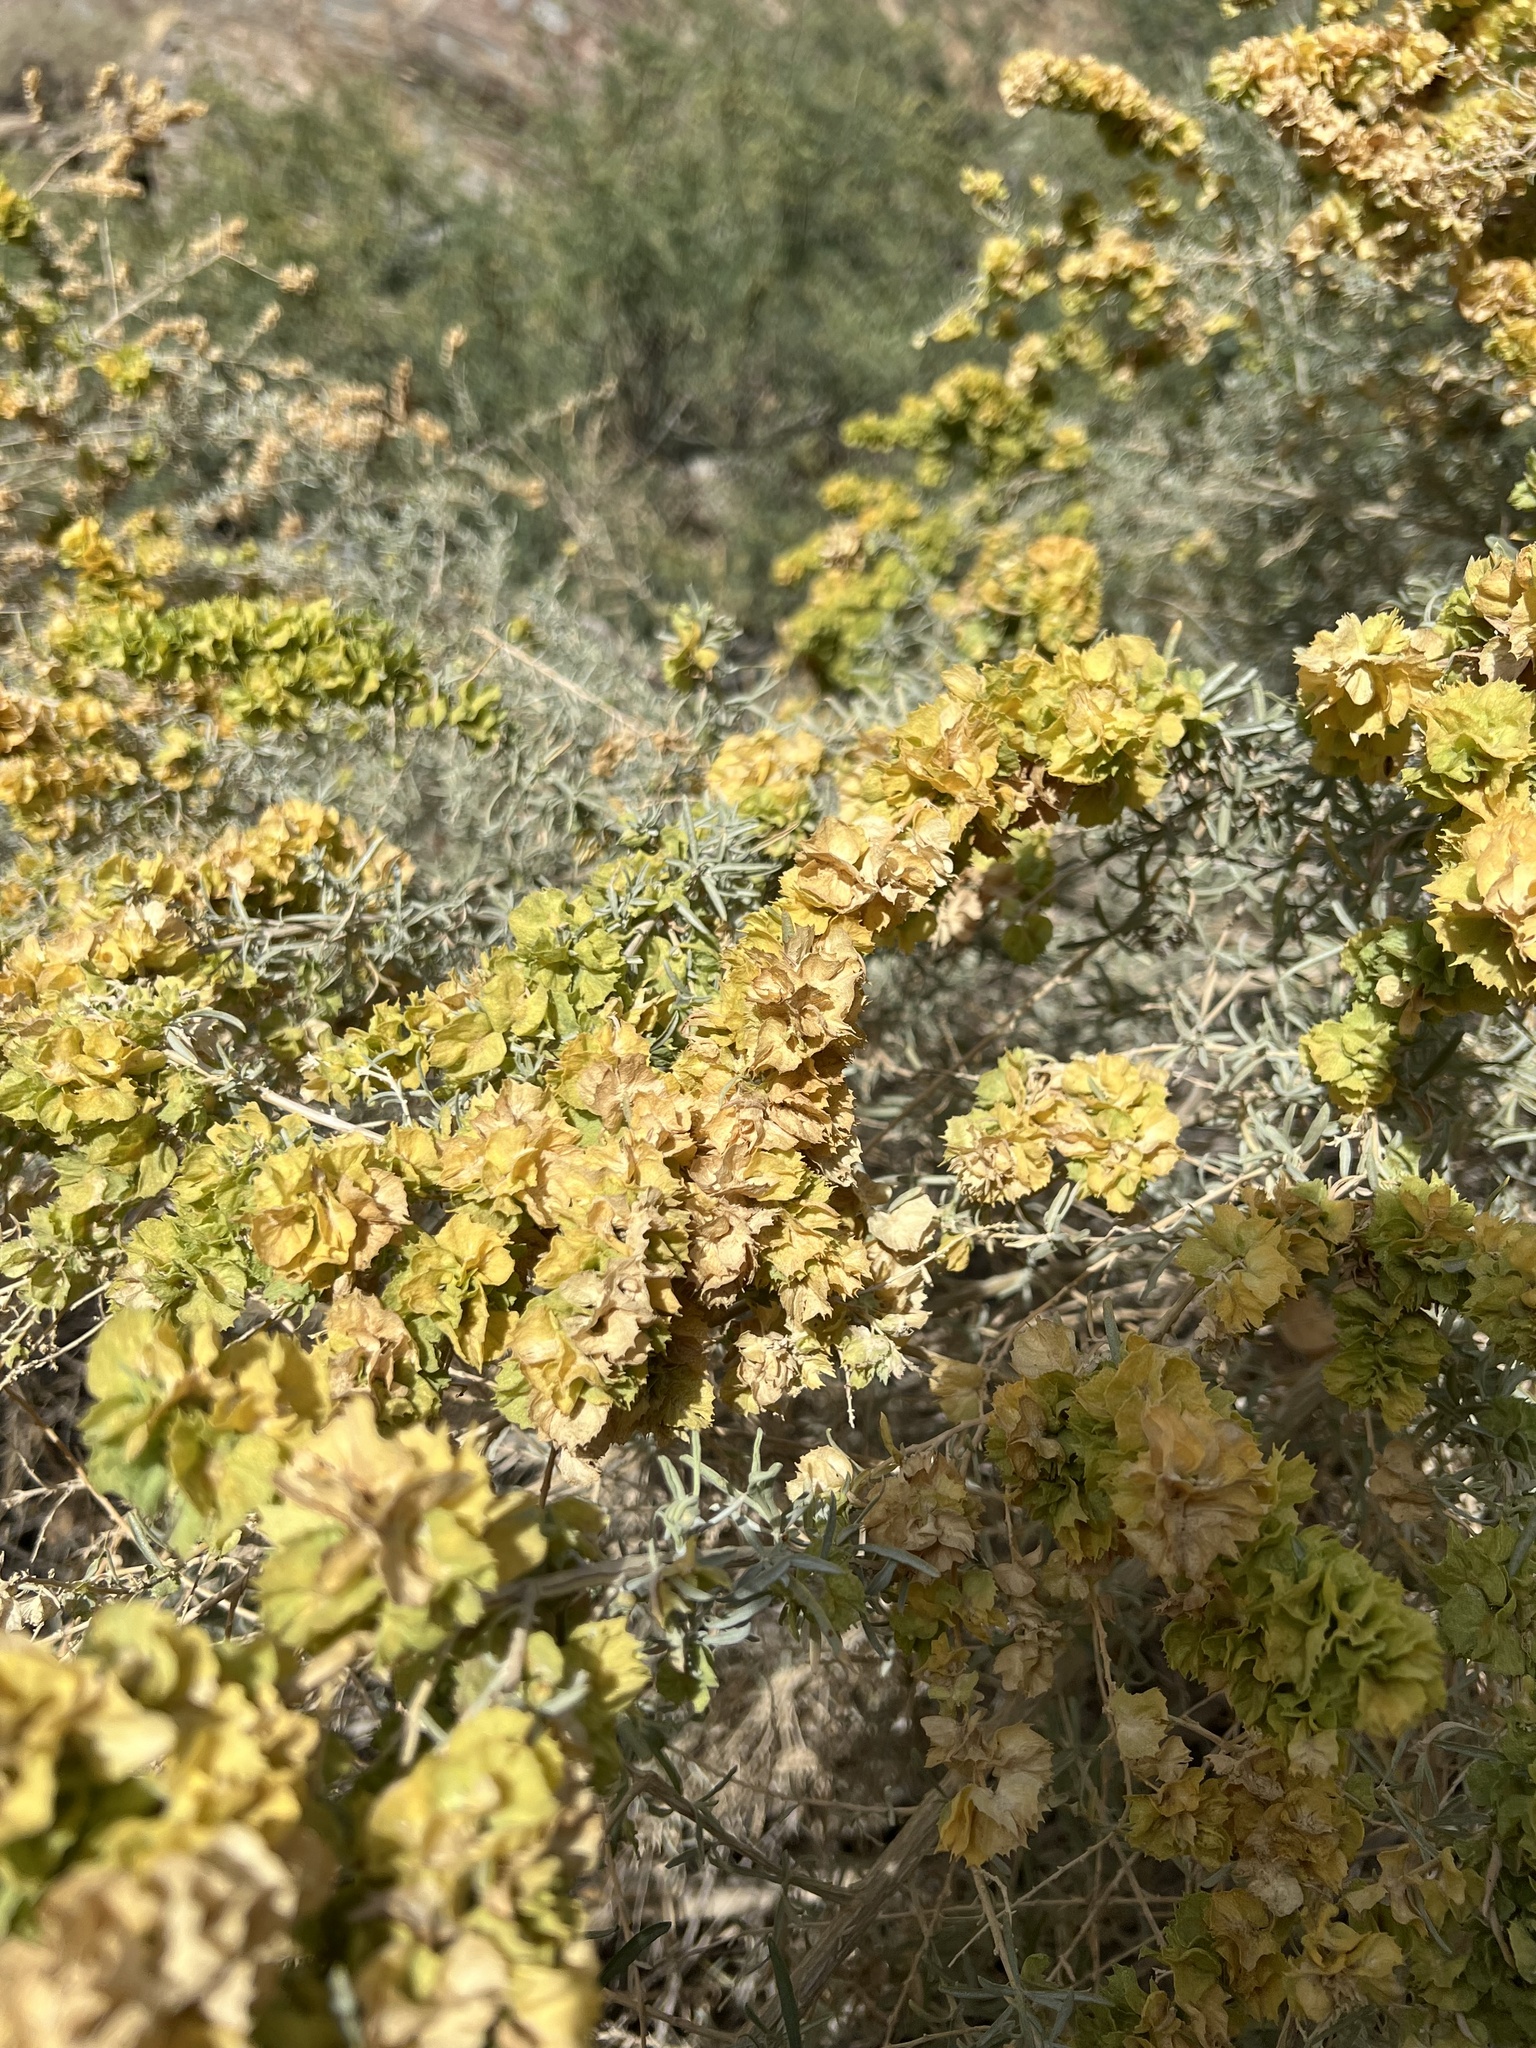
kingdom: Plantae
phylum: Tracheophyta
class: Magnoliopsida
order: Caryophyllales
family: Amaranthaceae
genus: Atriplex
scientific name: Atriplex canescens
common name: Four-wing saltbush
